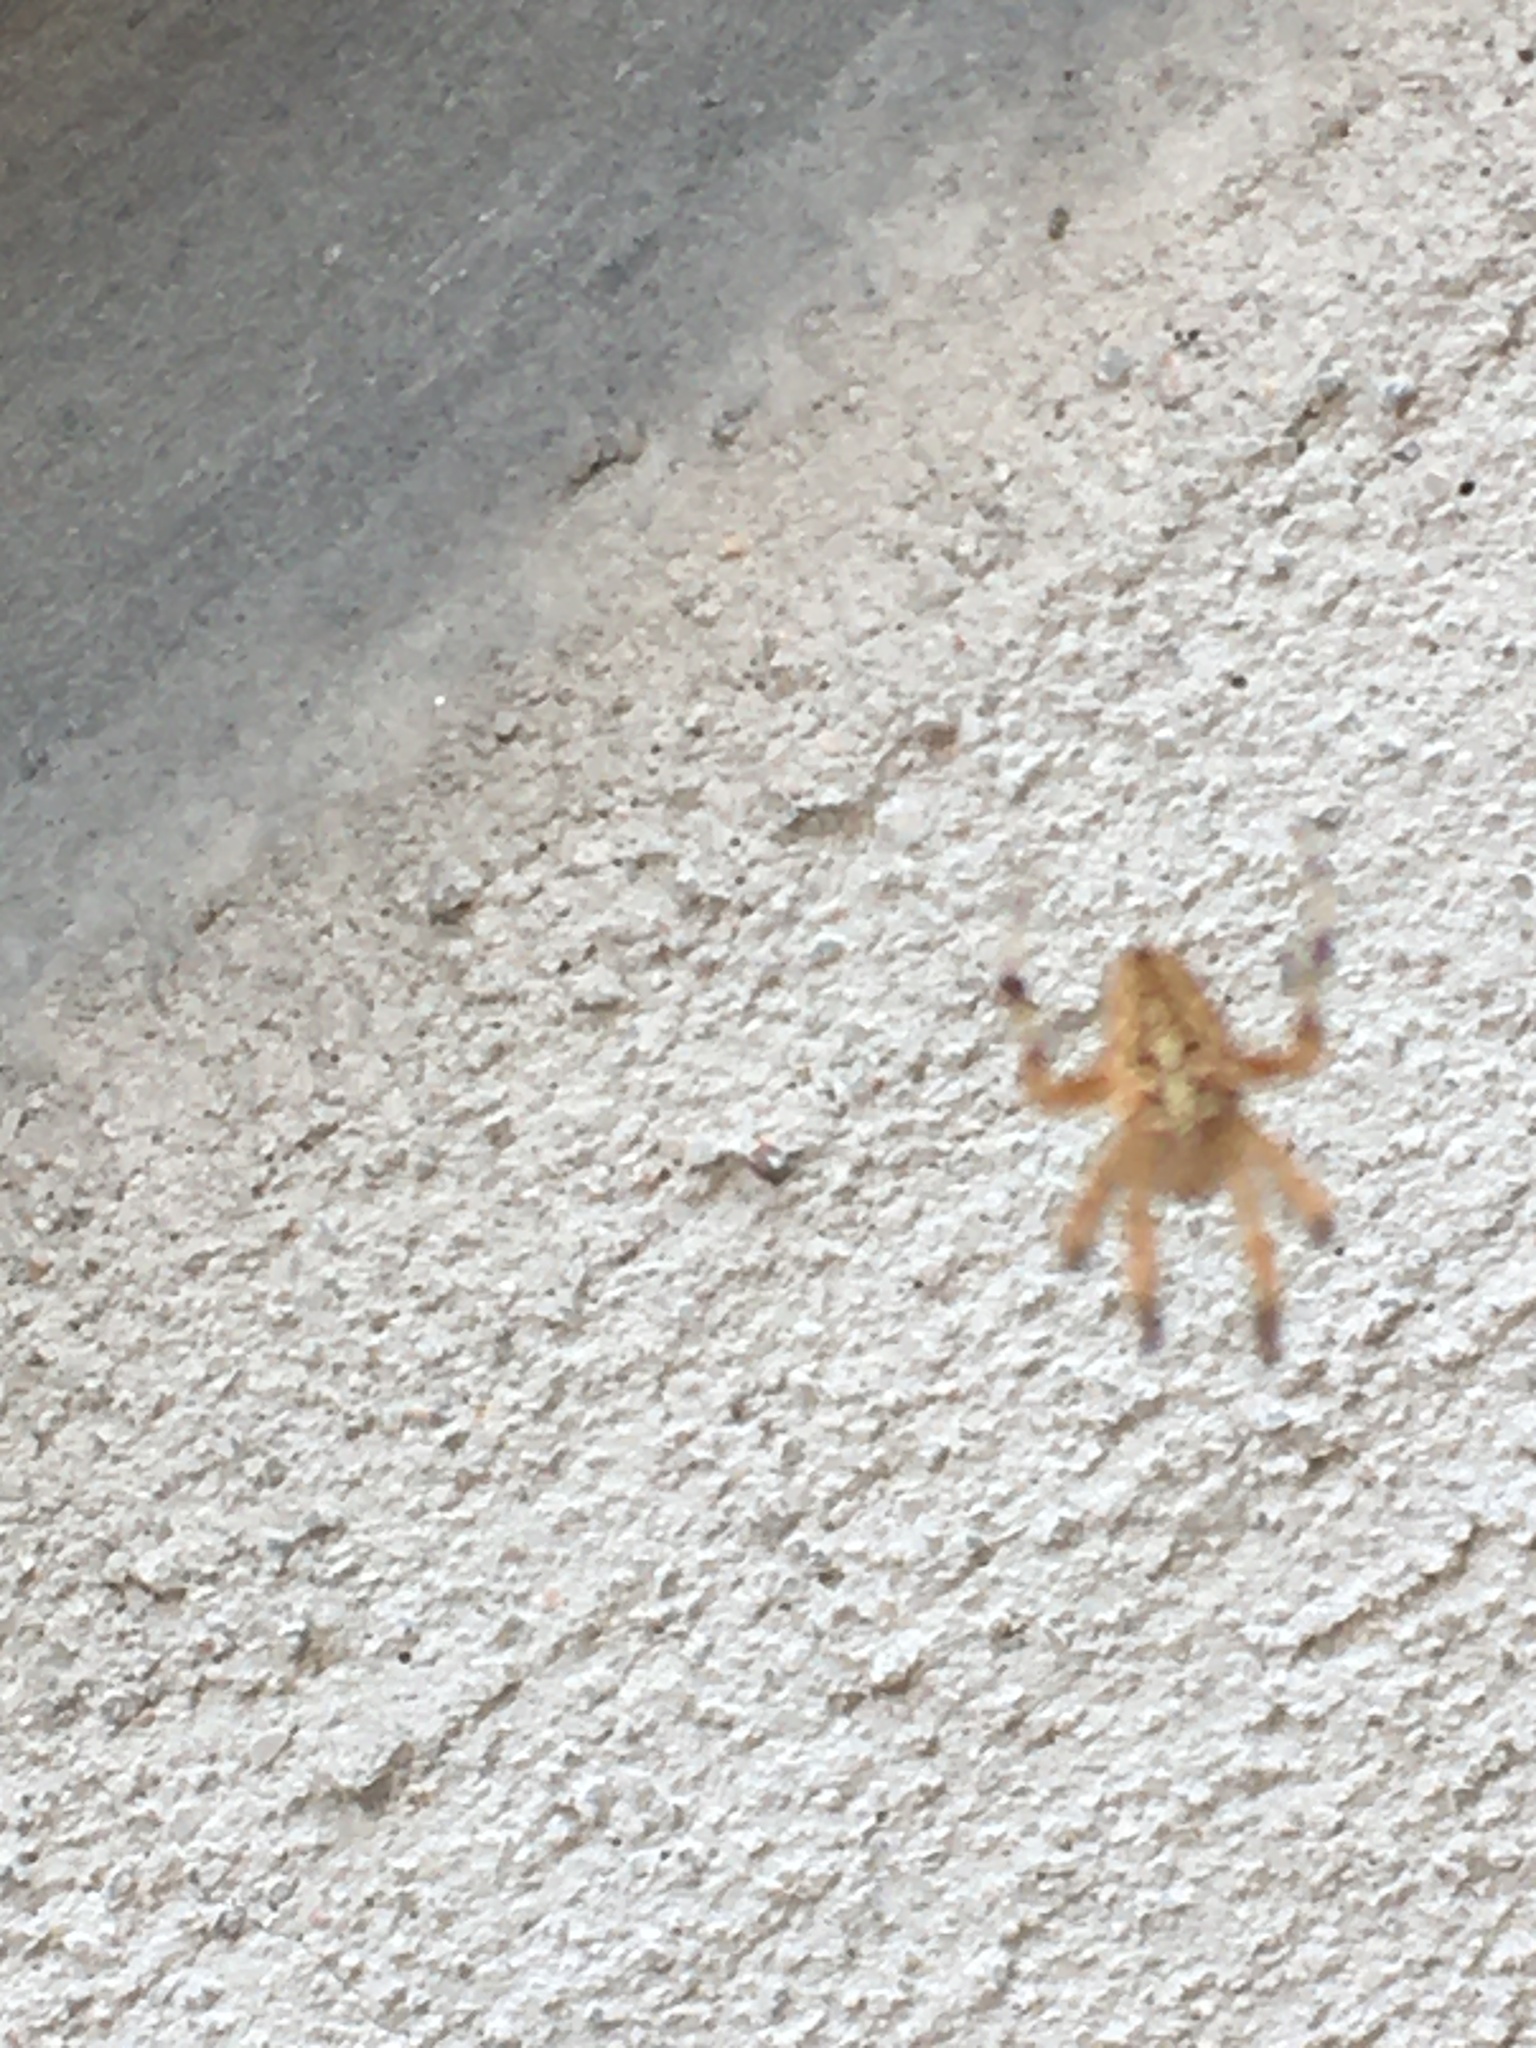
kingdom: Animalia
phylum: Arthropoda
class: Arachnida
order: Araneae
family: Araneidae
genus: Araneus
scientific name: Araneus diadematus
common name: Cross orbweaver
